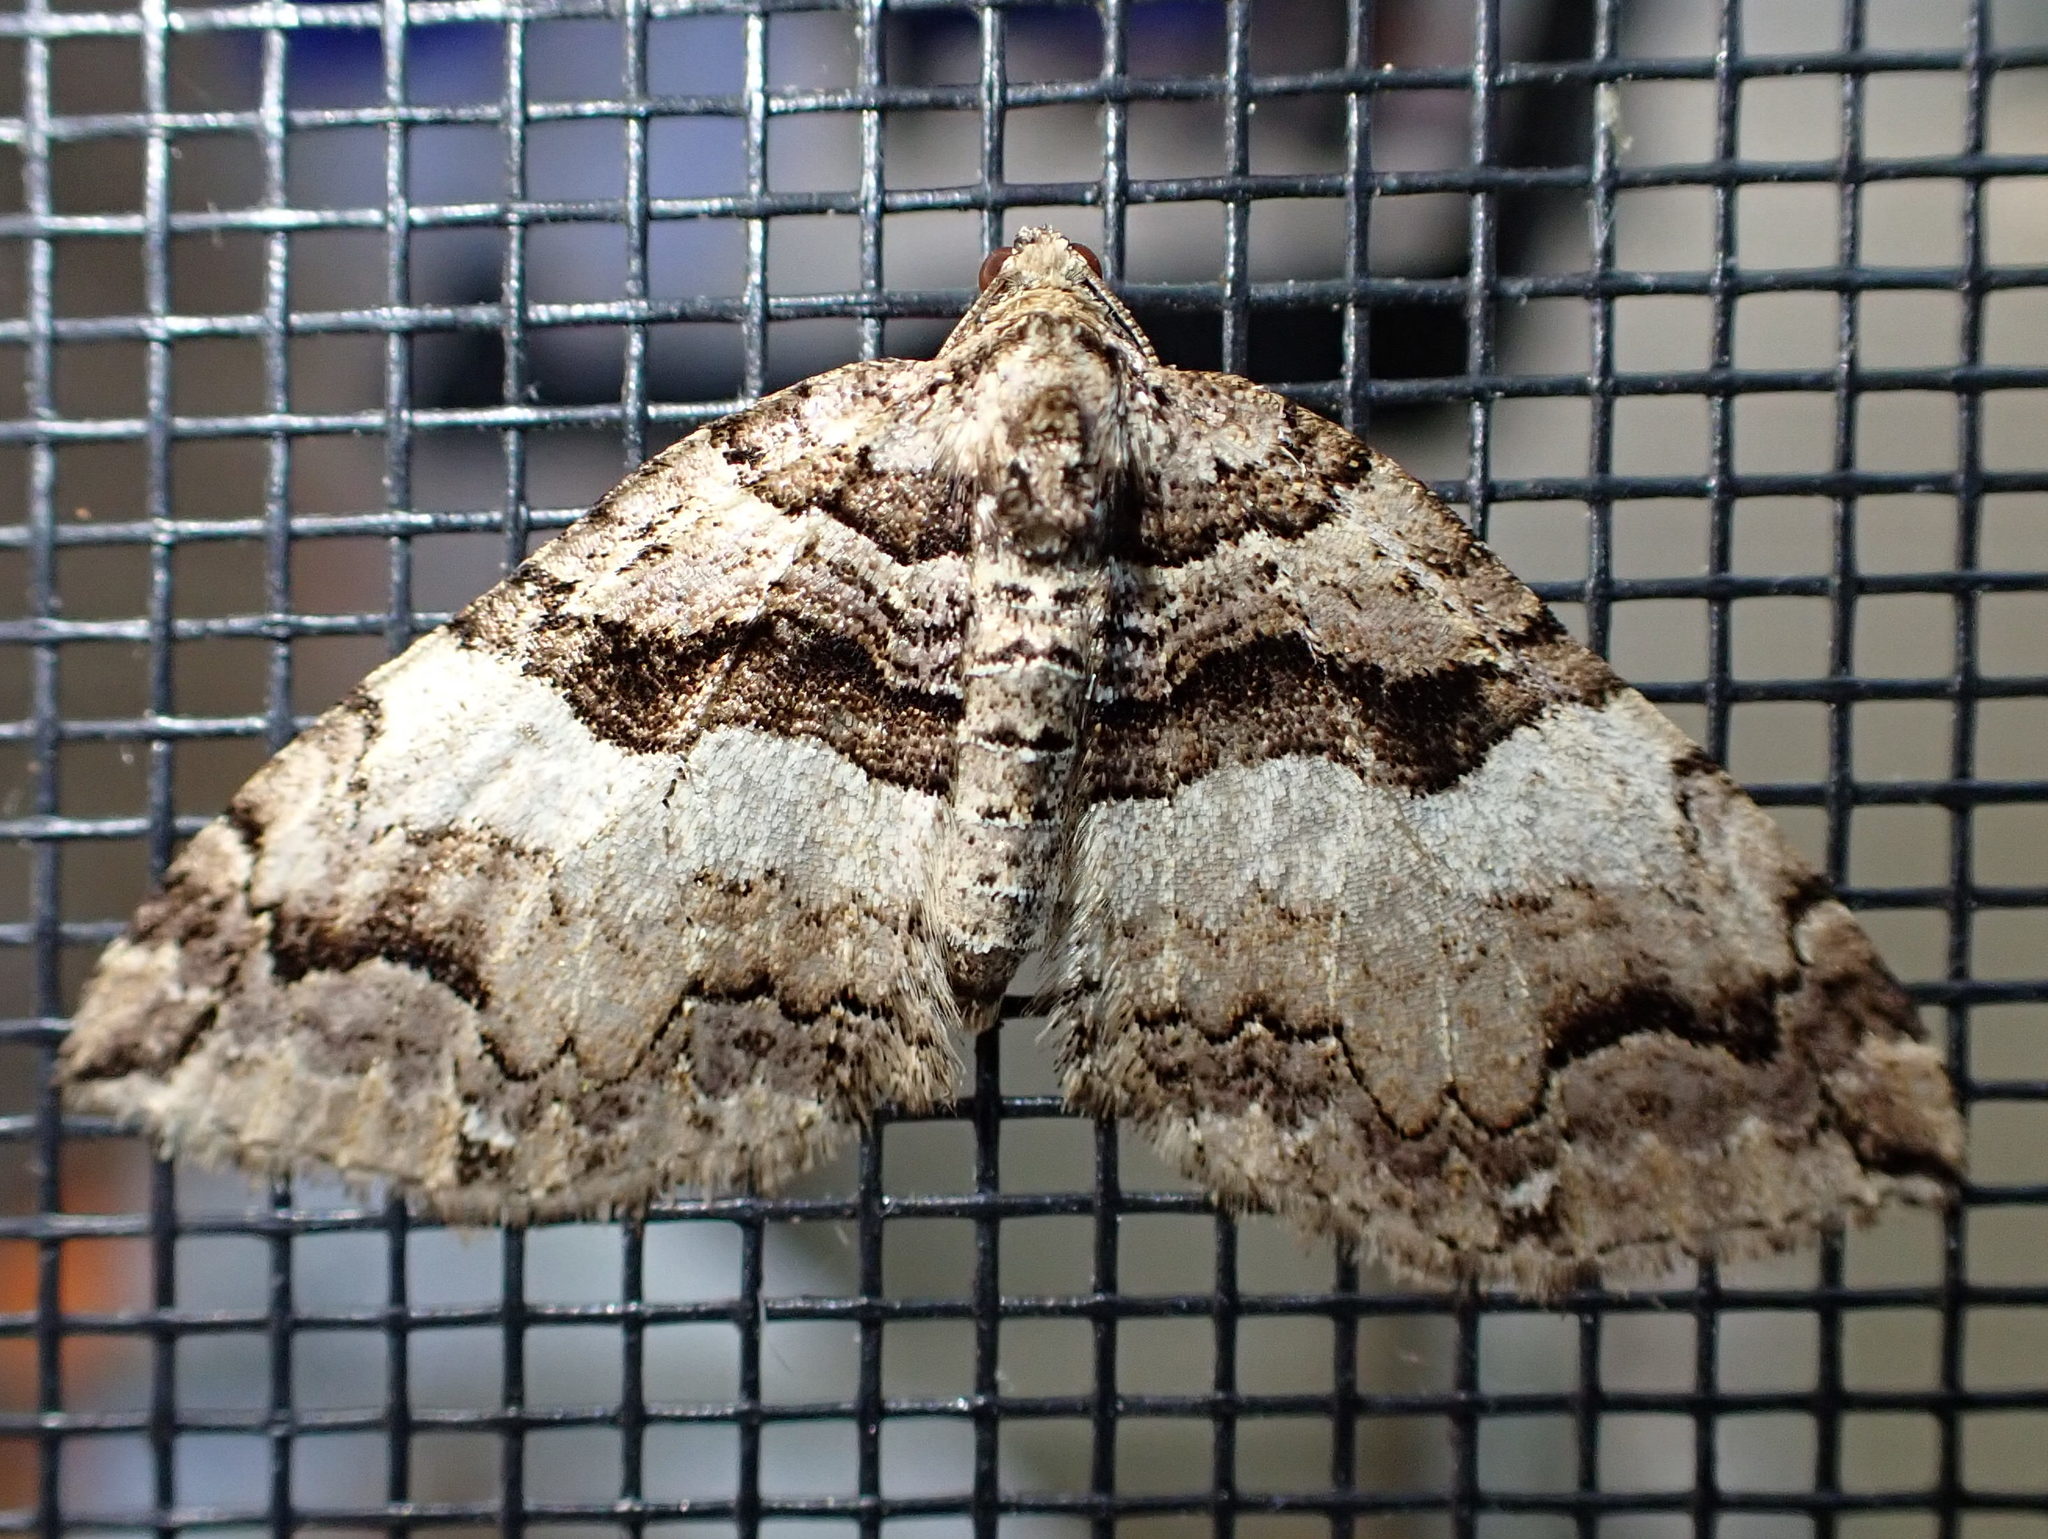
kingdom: Animalia
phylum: Arthropoda
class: Insecta
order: Lepidoptera
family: Geometridae
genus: Anticlea
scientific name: Anticlea vasiliata
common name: Variable carpet
